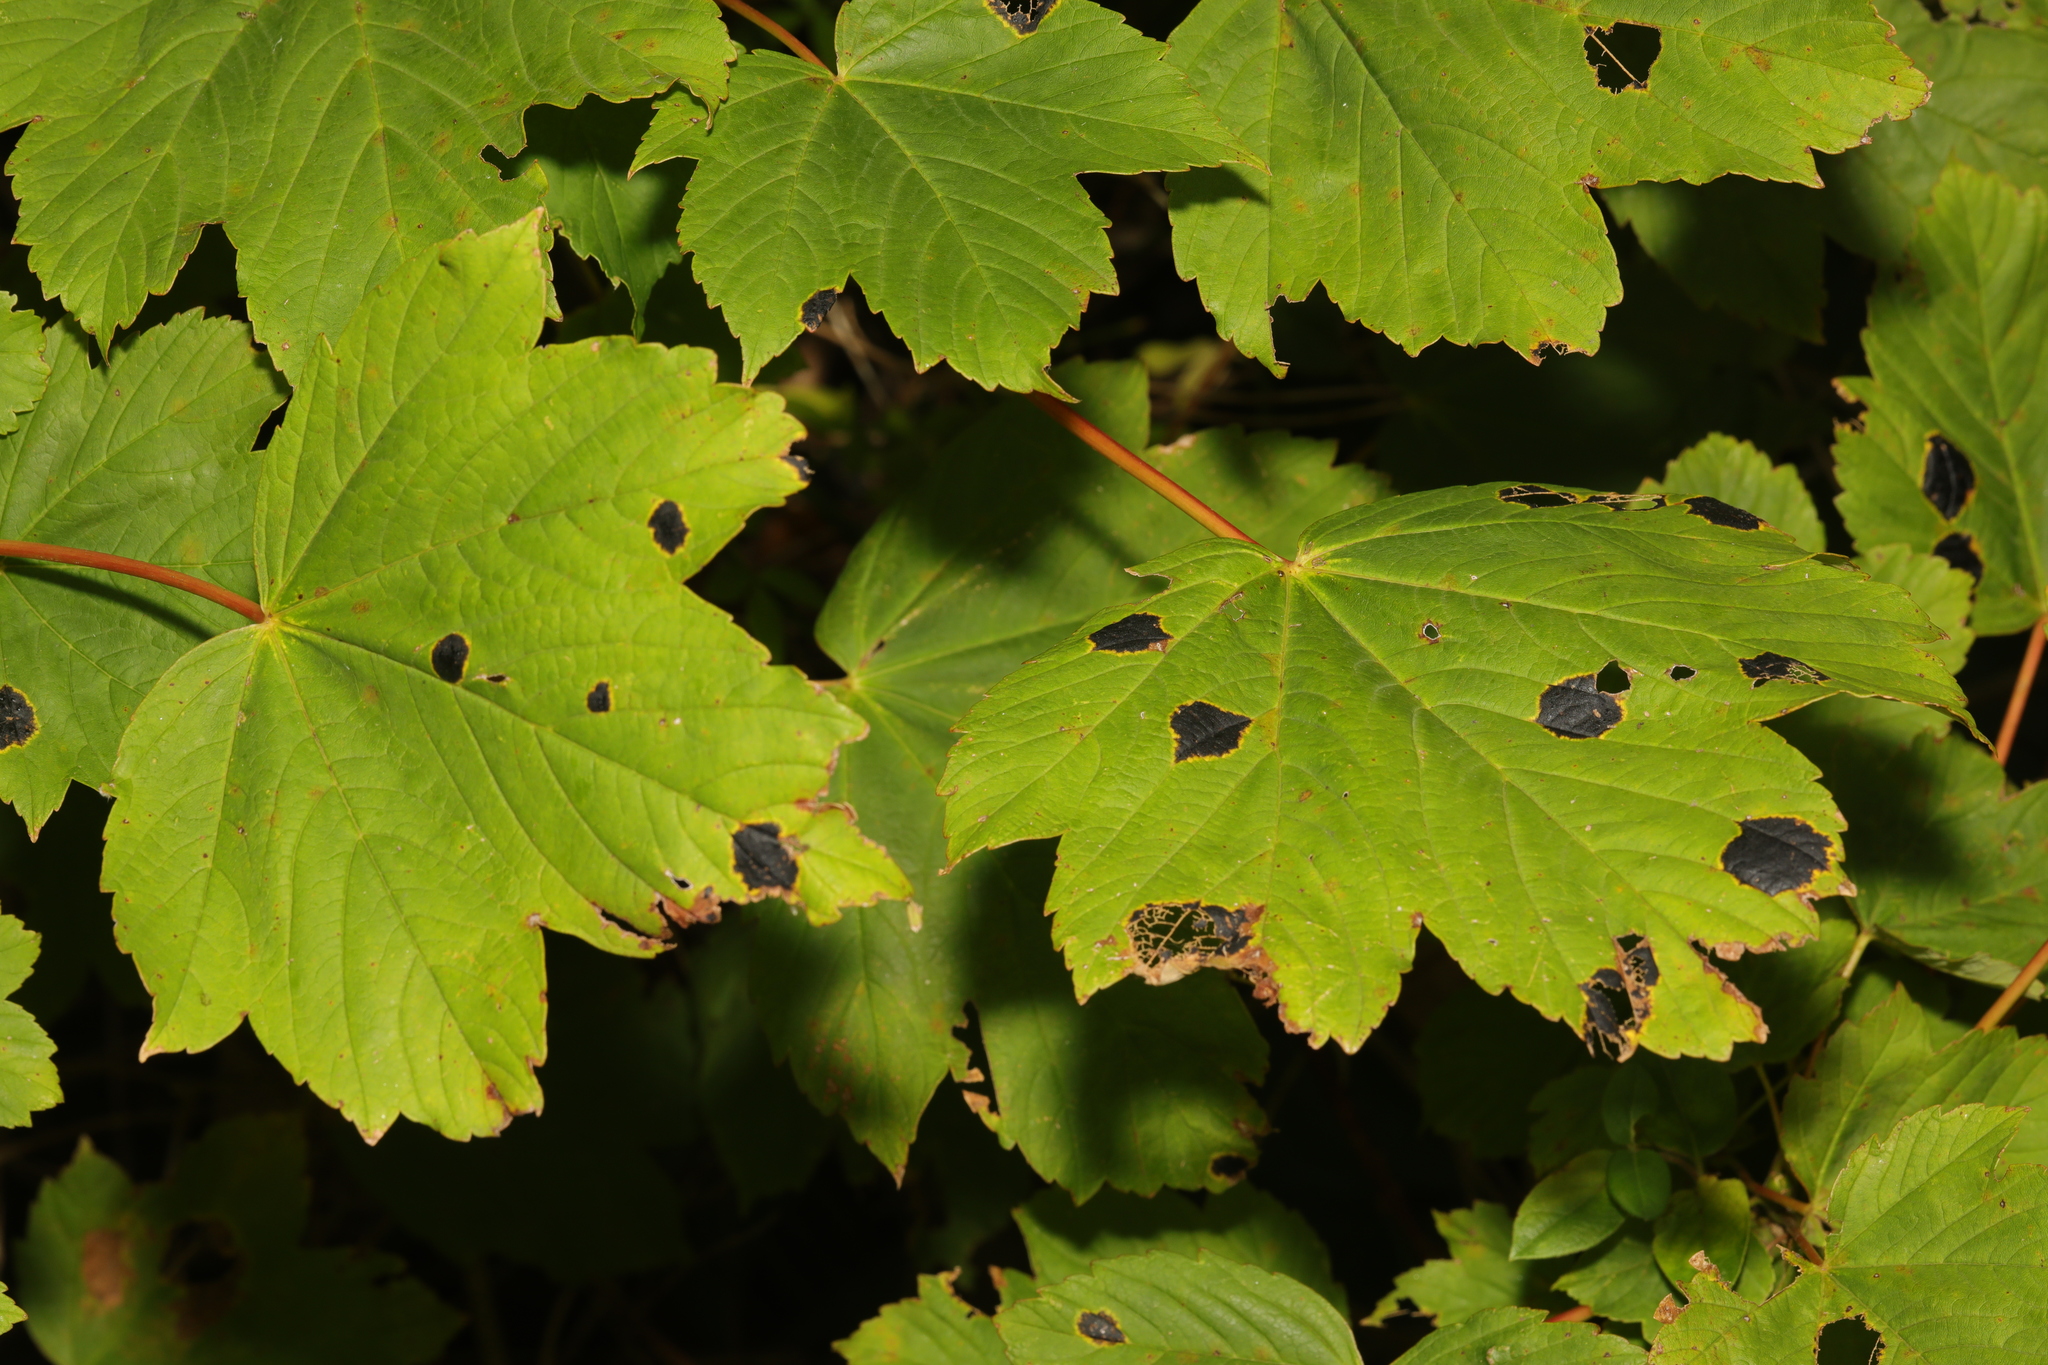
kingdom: Plantae
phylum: Tracheophyta
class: Magnoliopsida
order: Sapindales
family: Sapindaceae
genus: Acer
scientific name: Acer pseudoplatanus
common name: Sycamore
